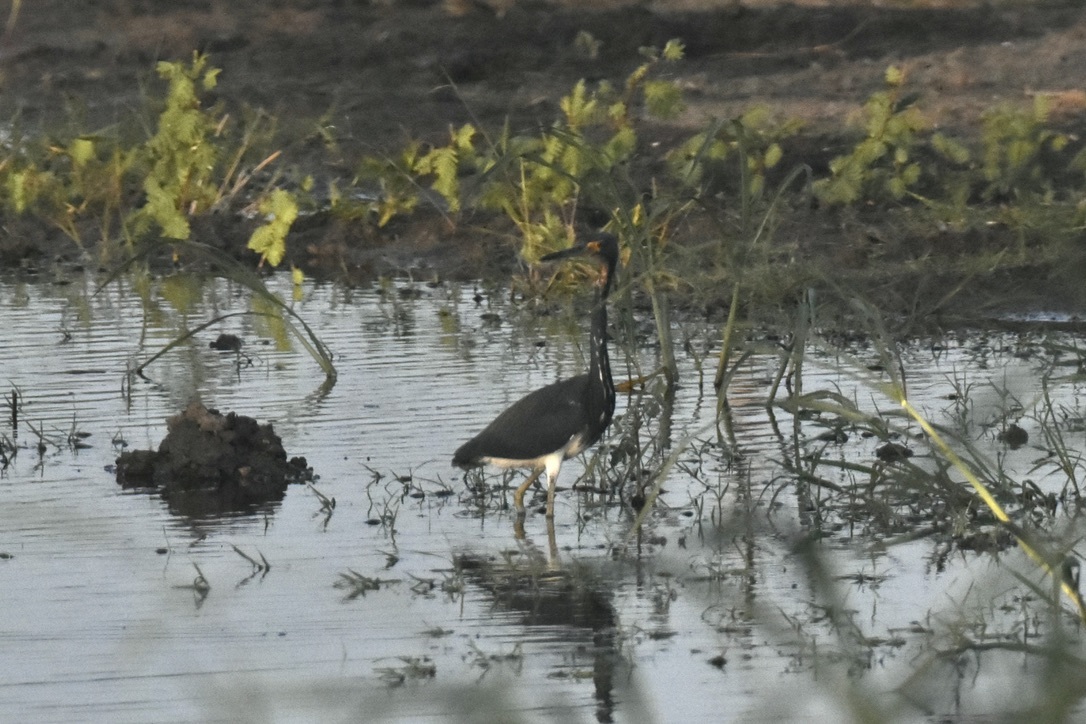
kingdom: Animalia
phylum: Chordata
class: Aves
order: Pelecaniformes
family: Ardeidae
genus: Egretta
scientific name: Egretta tricolor
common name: Tricolored heron
